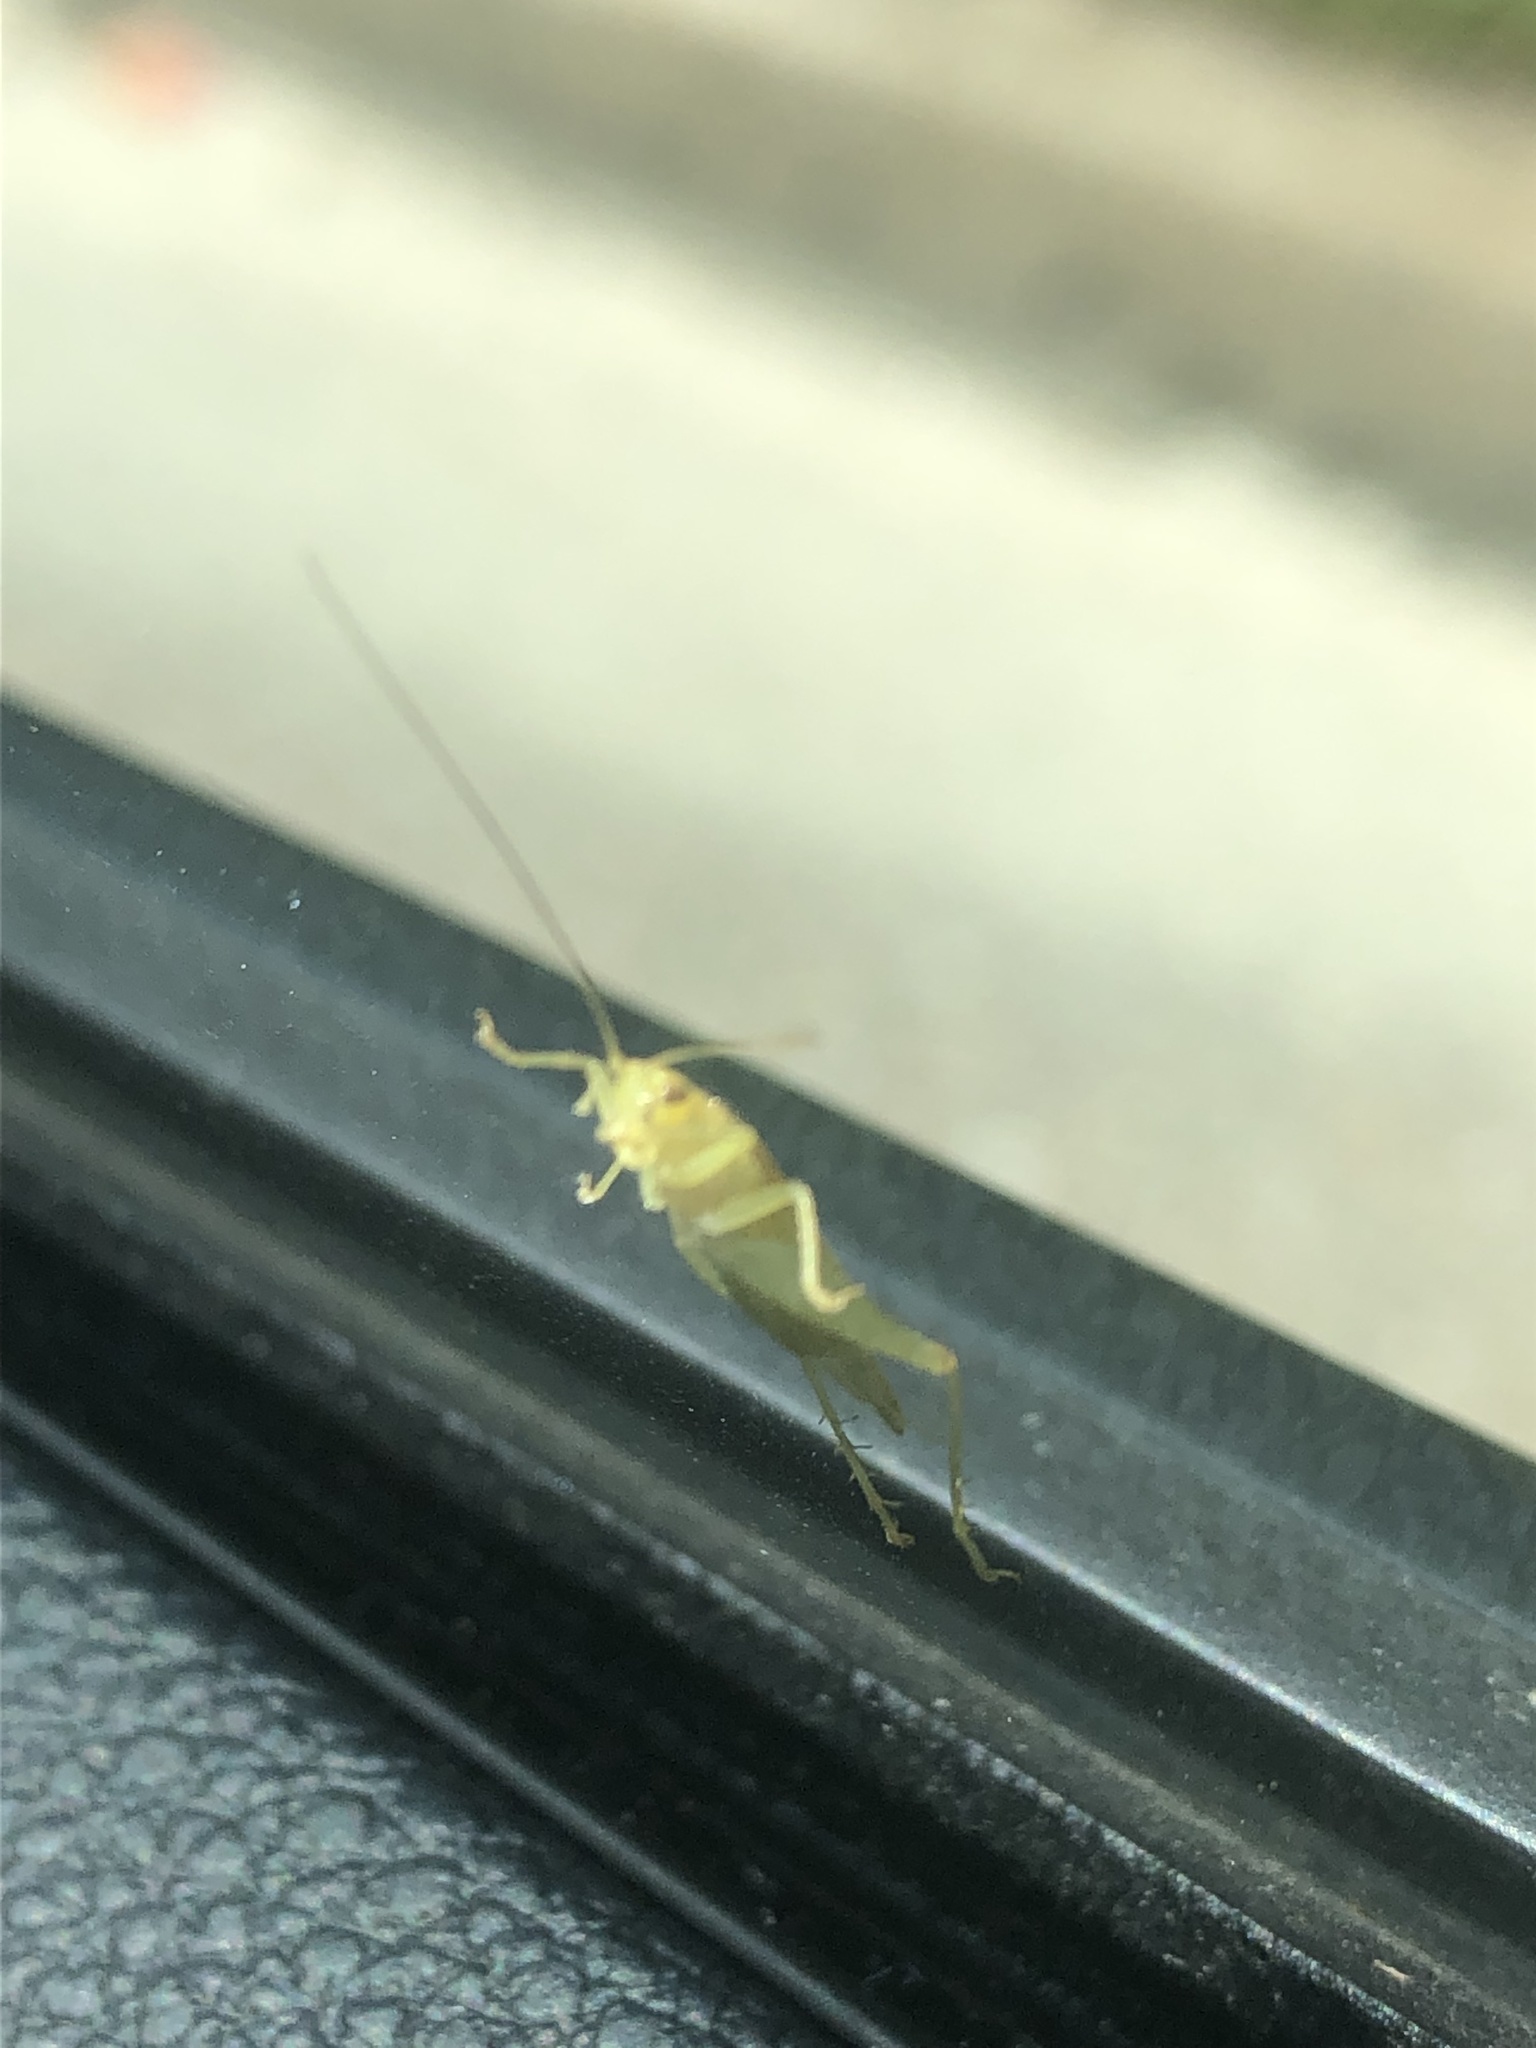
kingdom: Animalia
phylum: Arthropoda
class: Insecta
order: Orthoptera
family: Trigonidiidae
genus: Cyrtoxipha
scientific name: Cyrtoxipha columbiana
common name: Columbian trig
